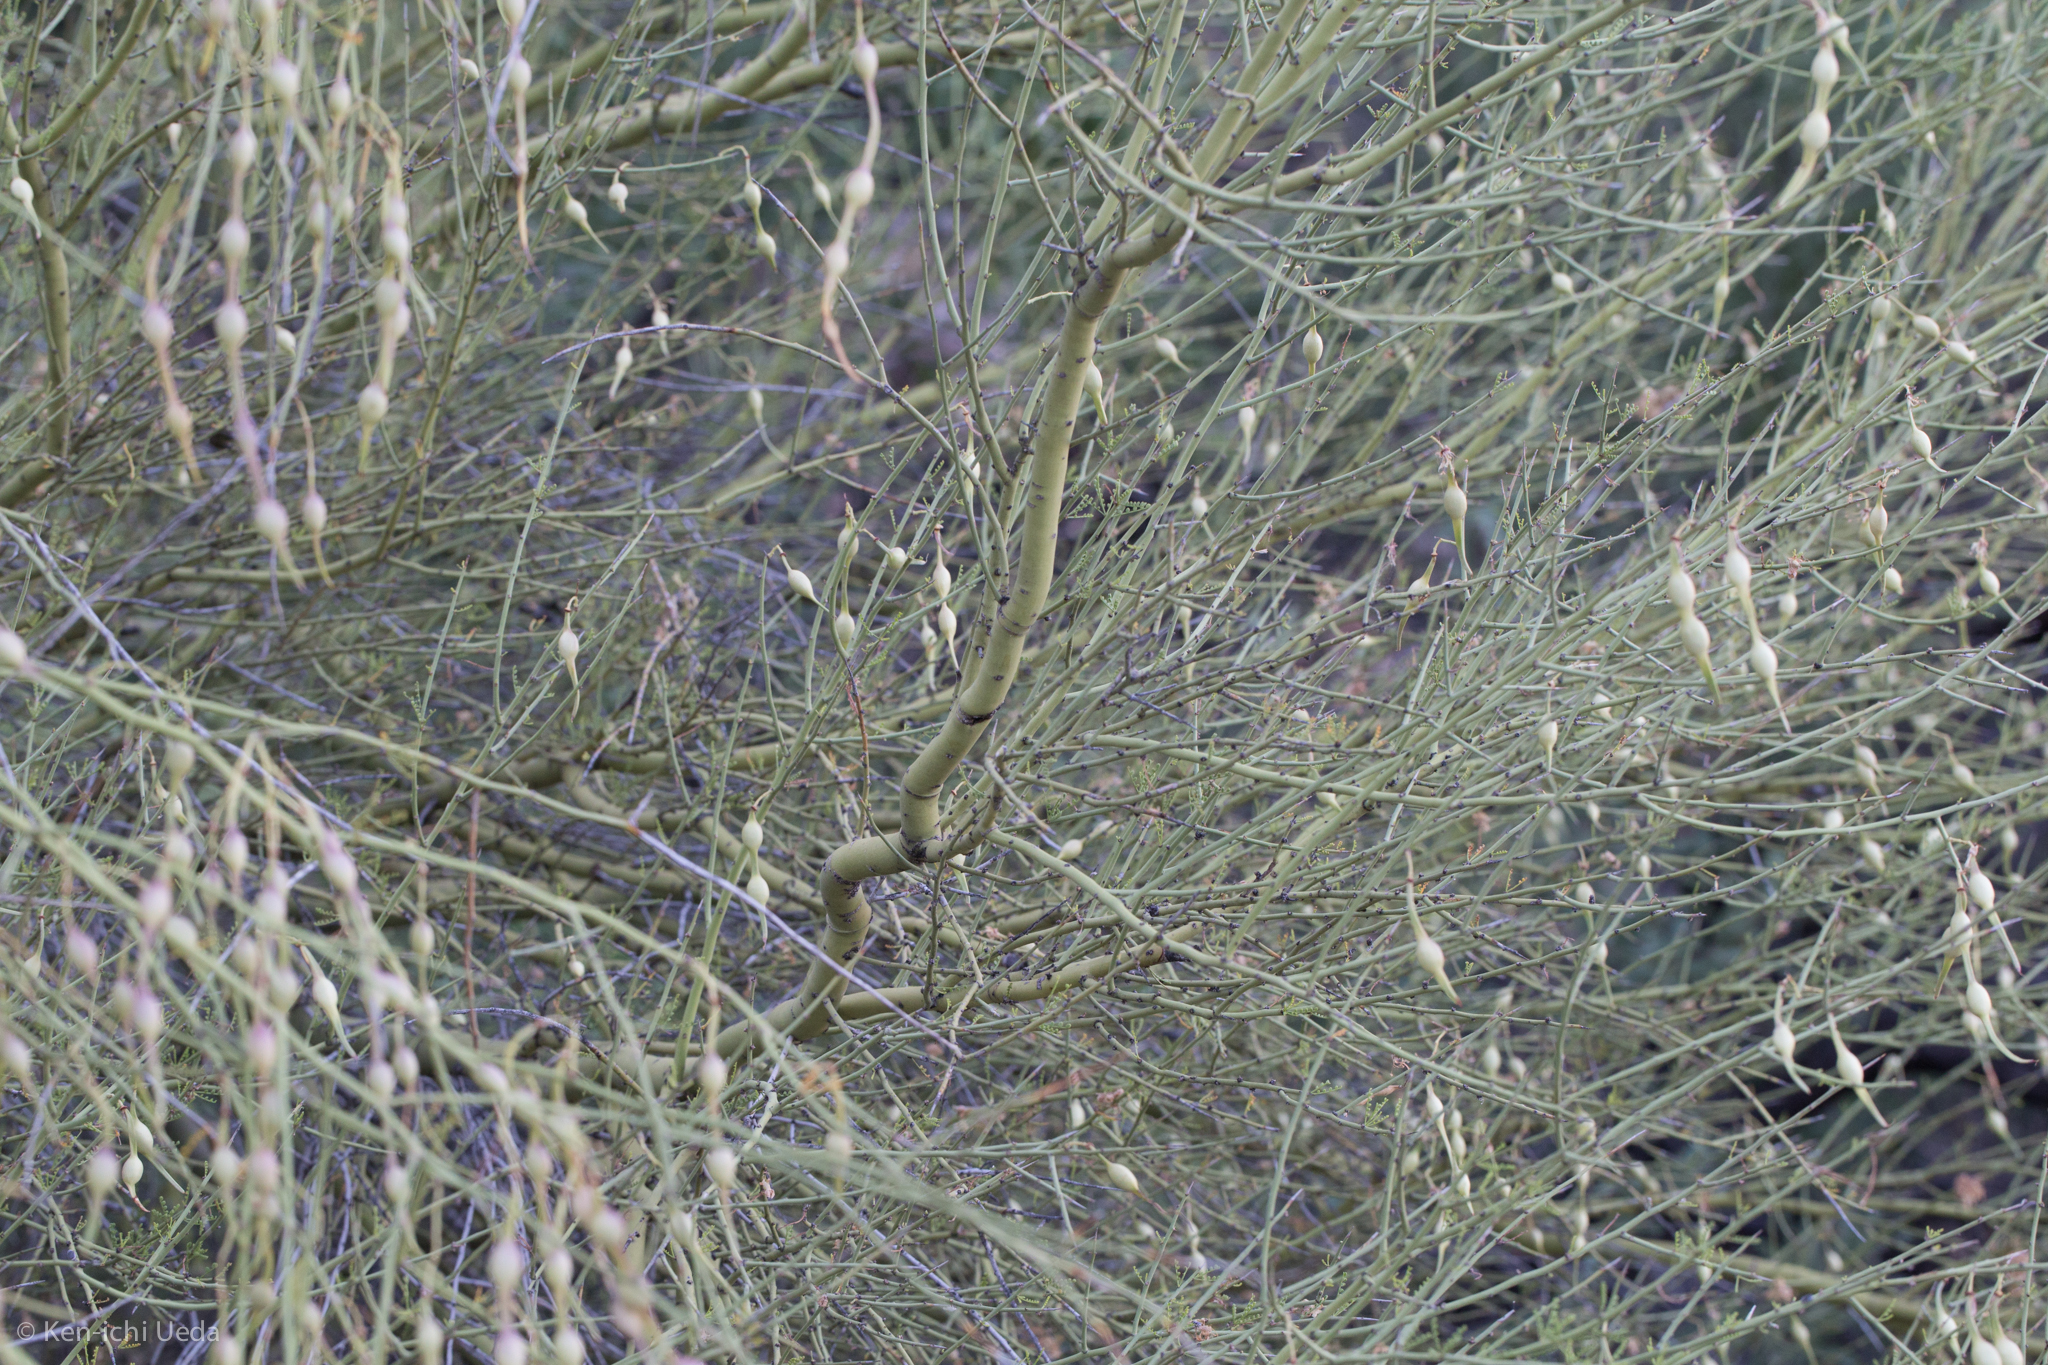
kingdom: Plantae
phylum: Tracheophyta
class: Magnoliopsida
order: Fabales
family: Fabaceae
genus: Parkinsonia
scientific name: Parkinsonia microphylla
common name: Yellow paloverde
